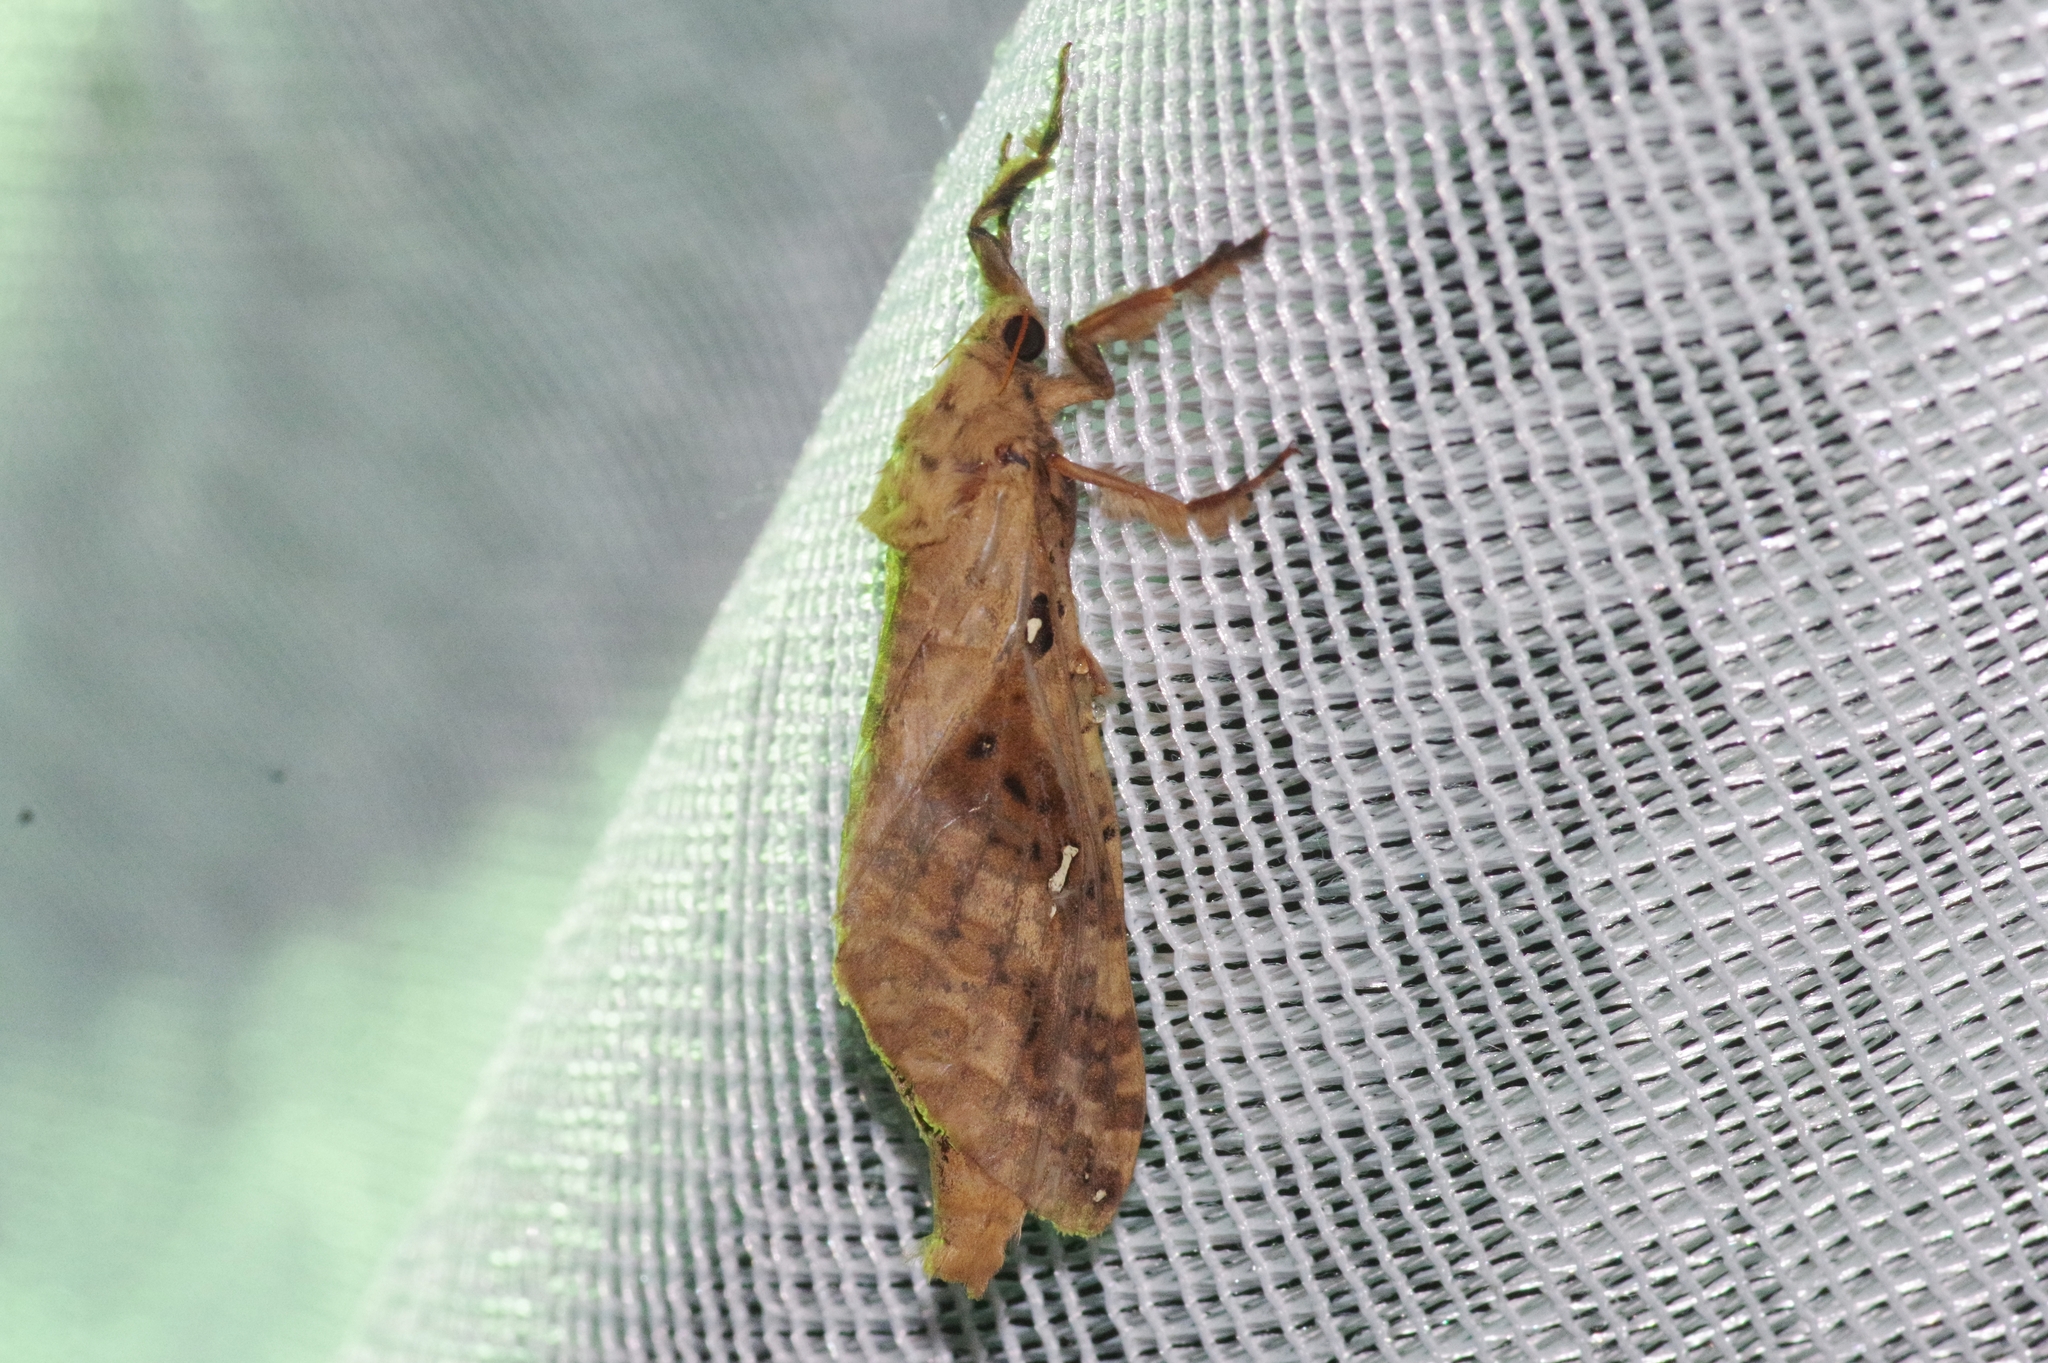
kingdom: Animalia
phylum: Arthropoda
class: Insecta
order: Lepidoptera
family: Hepialidae
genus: Endoclita
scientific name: Endoclita sinensis
